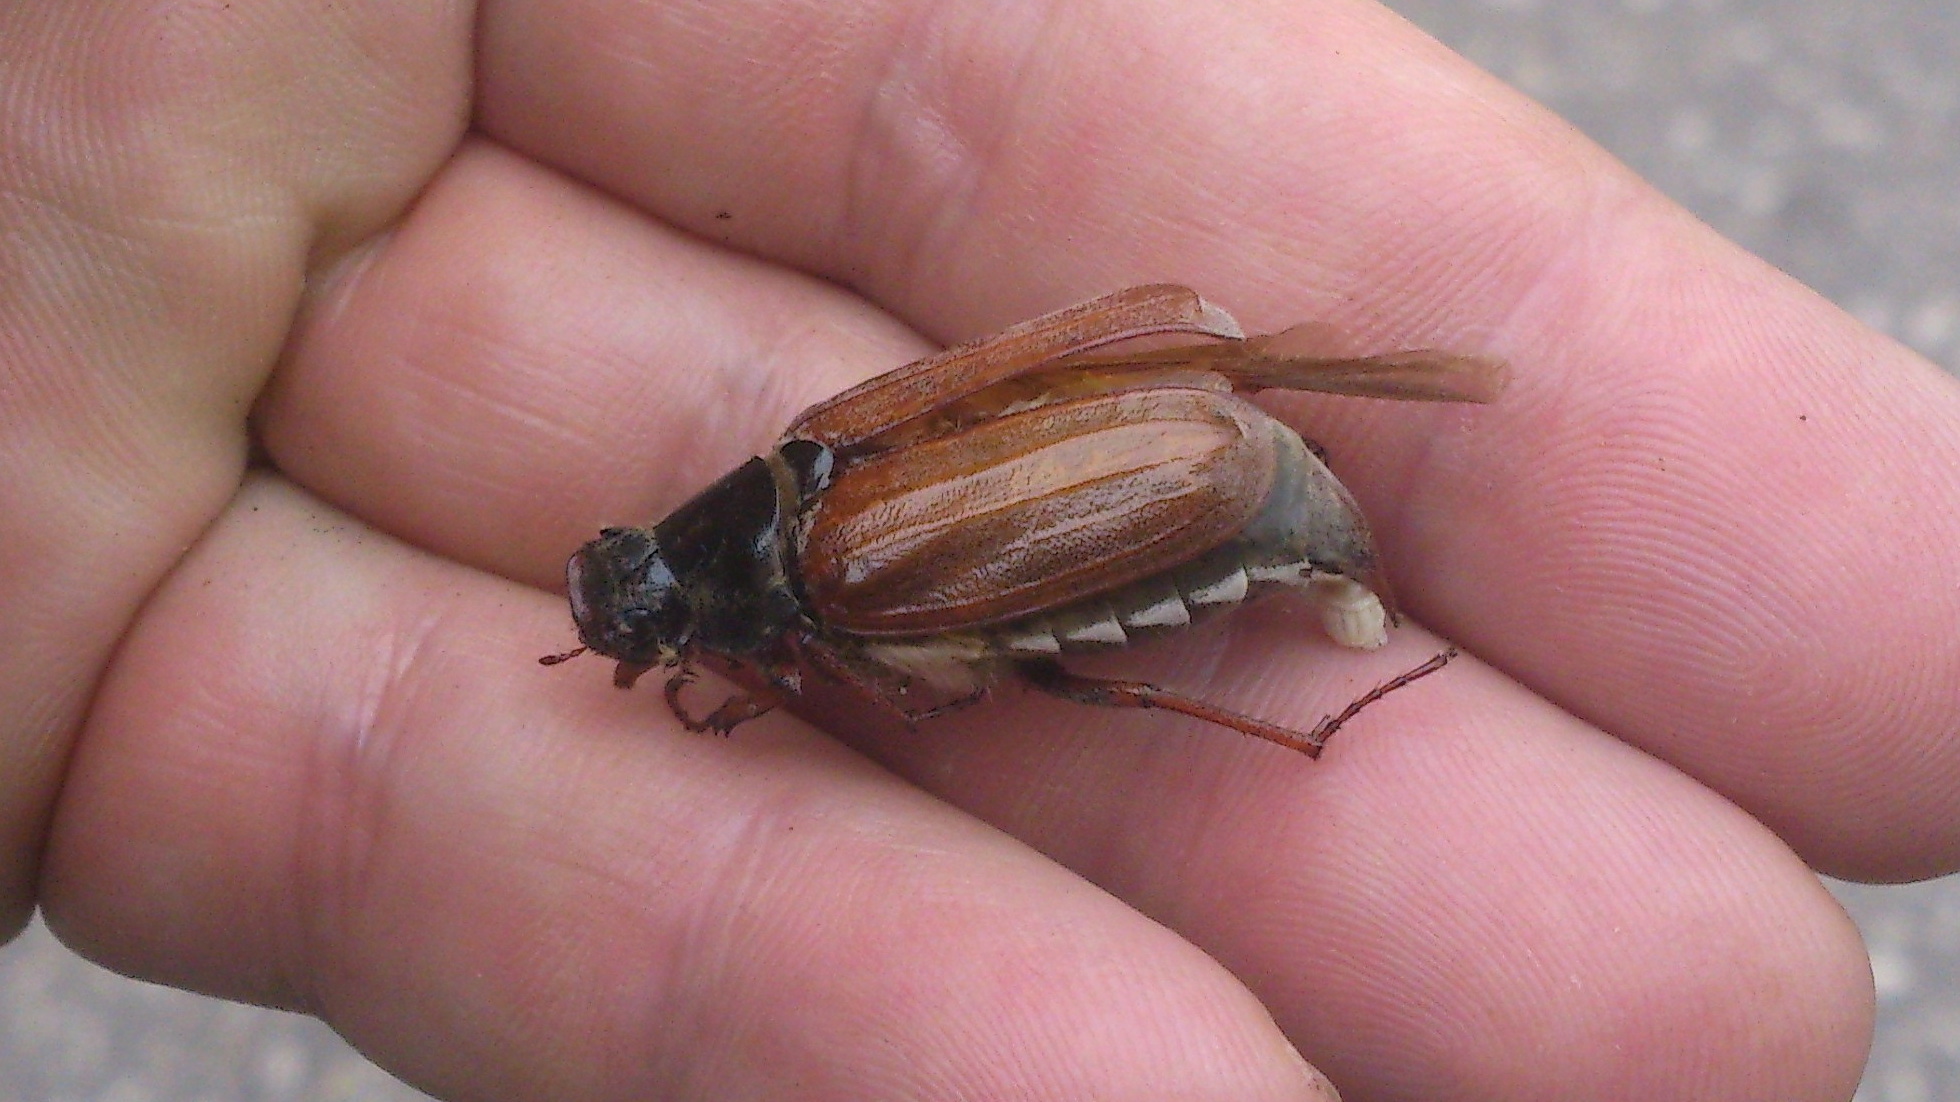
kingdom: Animalia
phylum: Arthropoda
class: Insecta
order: Coleoptera
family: Scarabaeidae
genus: Melolontha
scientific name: Melolontha melolontha
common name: Cockchafer maybeetle
